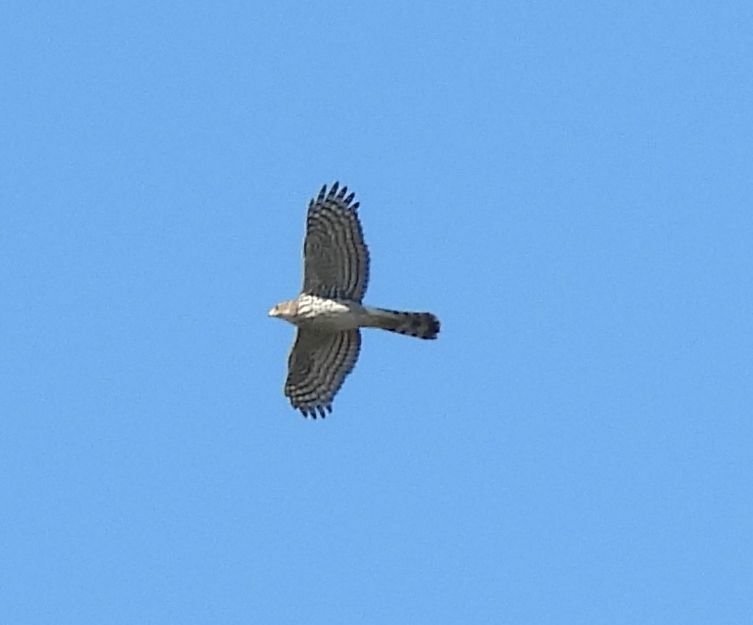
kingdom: Animalia
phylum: Chordata
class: Aves
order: Accipitriformes
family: Accipitridae
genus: Accipiter
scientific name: Accipiter cooperii
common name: Cooper's hawk
